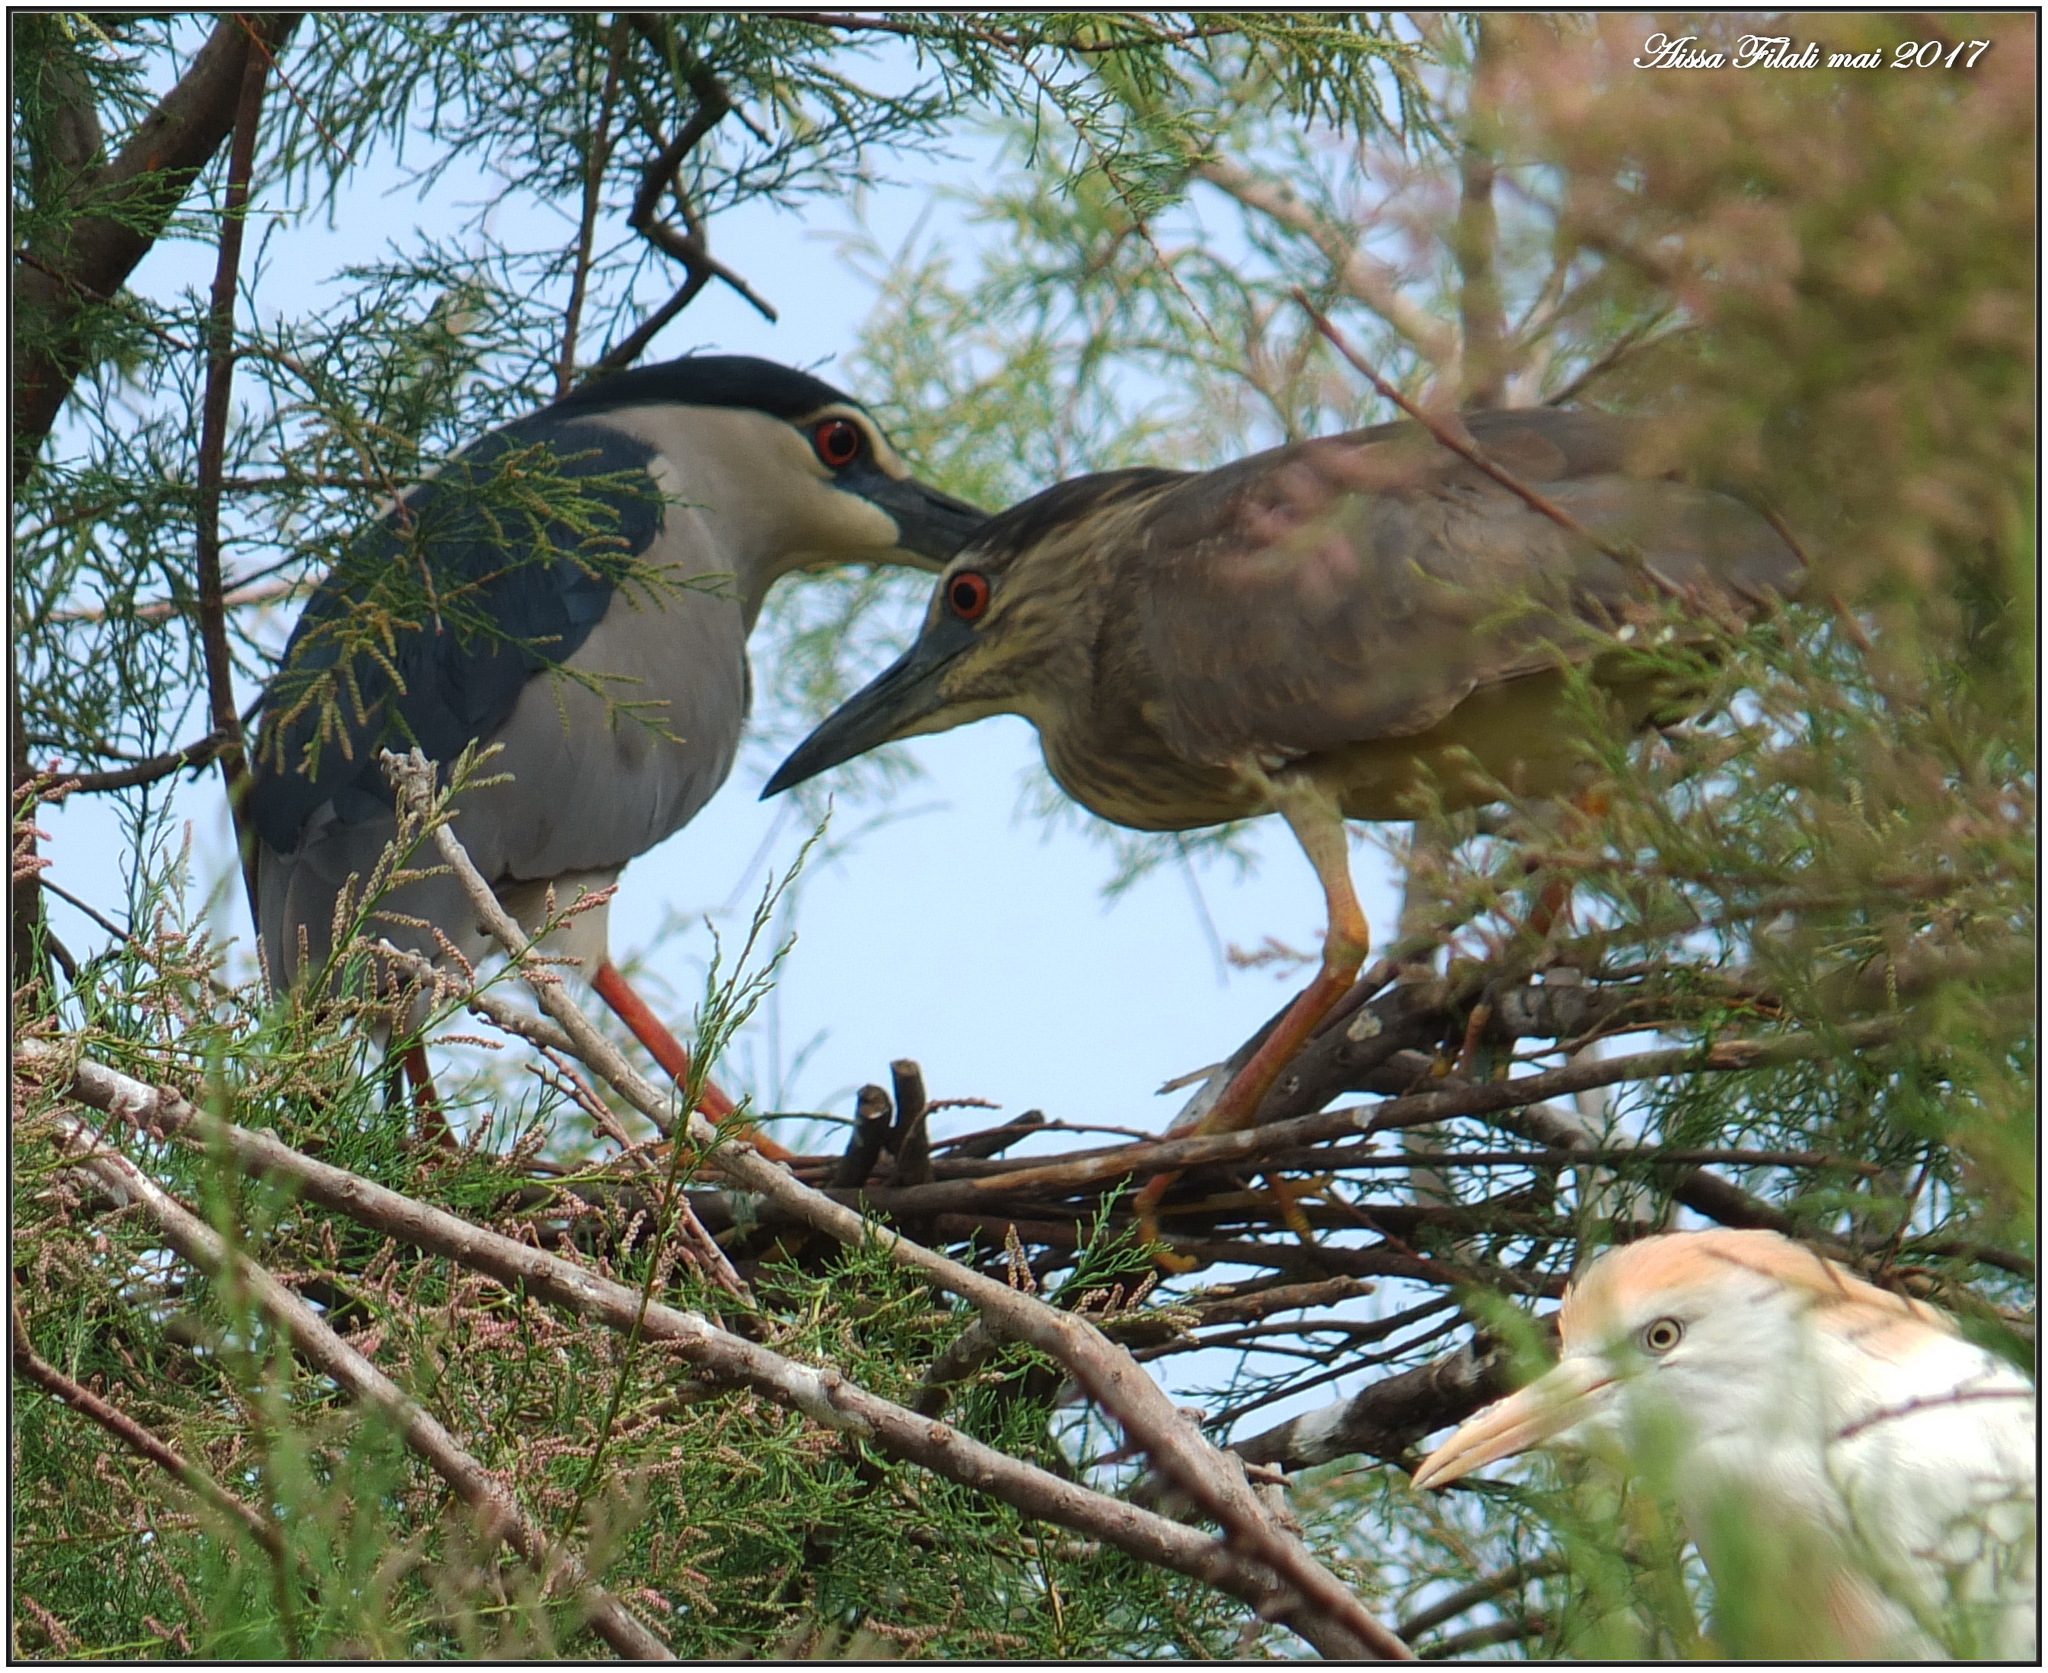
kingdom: Animalia
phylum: Chordata
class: Aves
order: Pelecaniformes
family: Ardeidae
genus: Nycticorax
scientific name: Nycticorax nycticorax
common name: Black-crowned night heron
